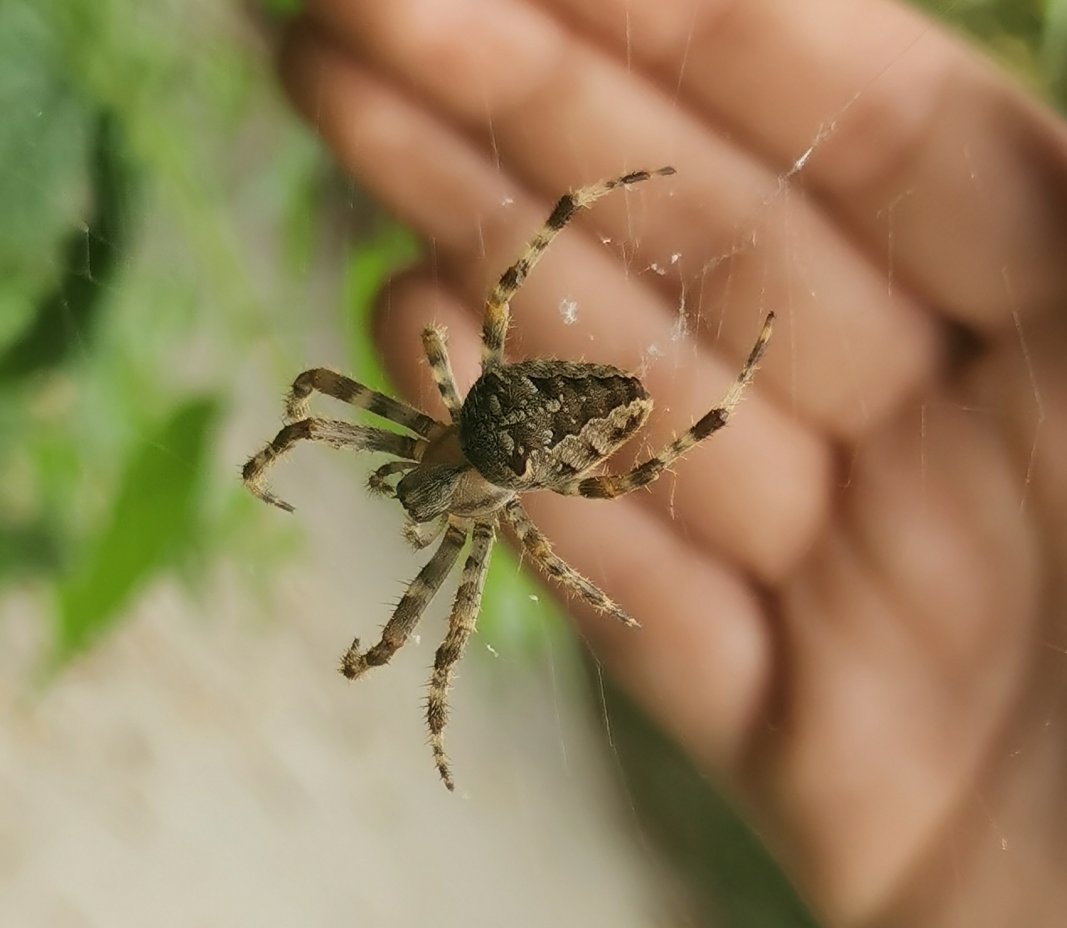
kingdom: Animalia
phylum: Arthropoda
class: Arachnida
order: Araneae
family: Araneidae
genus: Araneus
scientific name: Araneus diadematus
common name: Cross orbweaver
